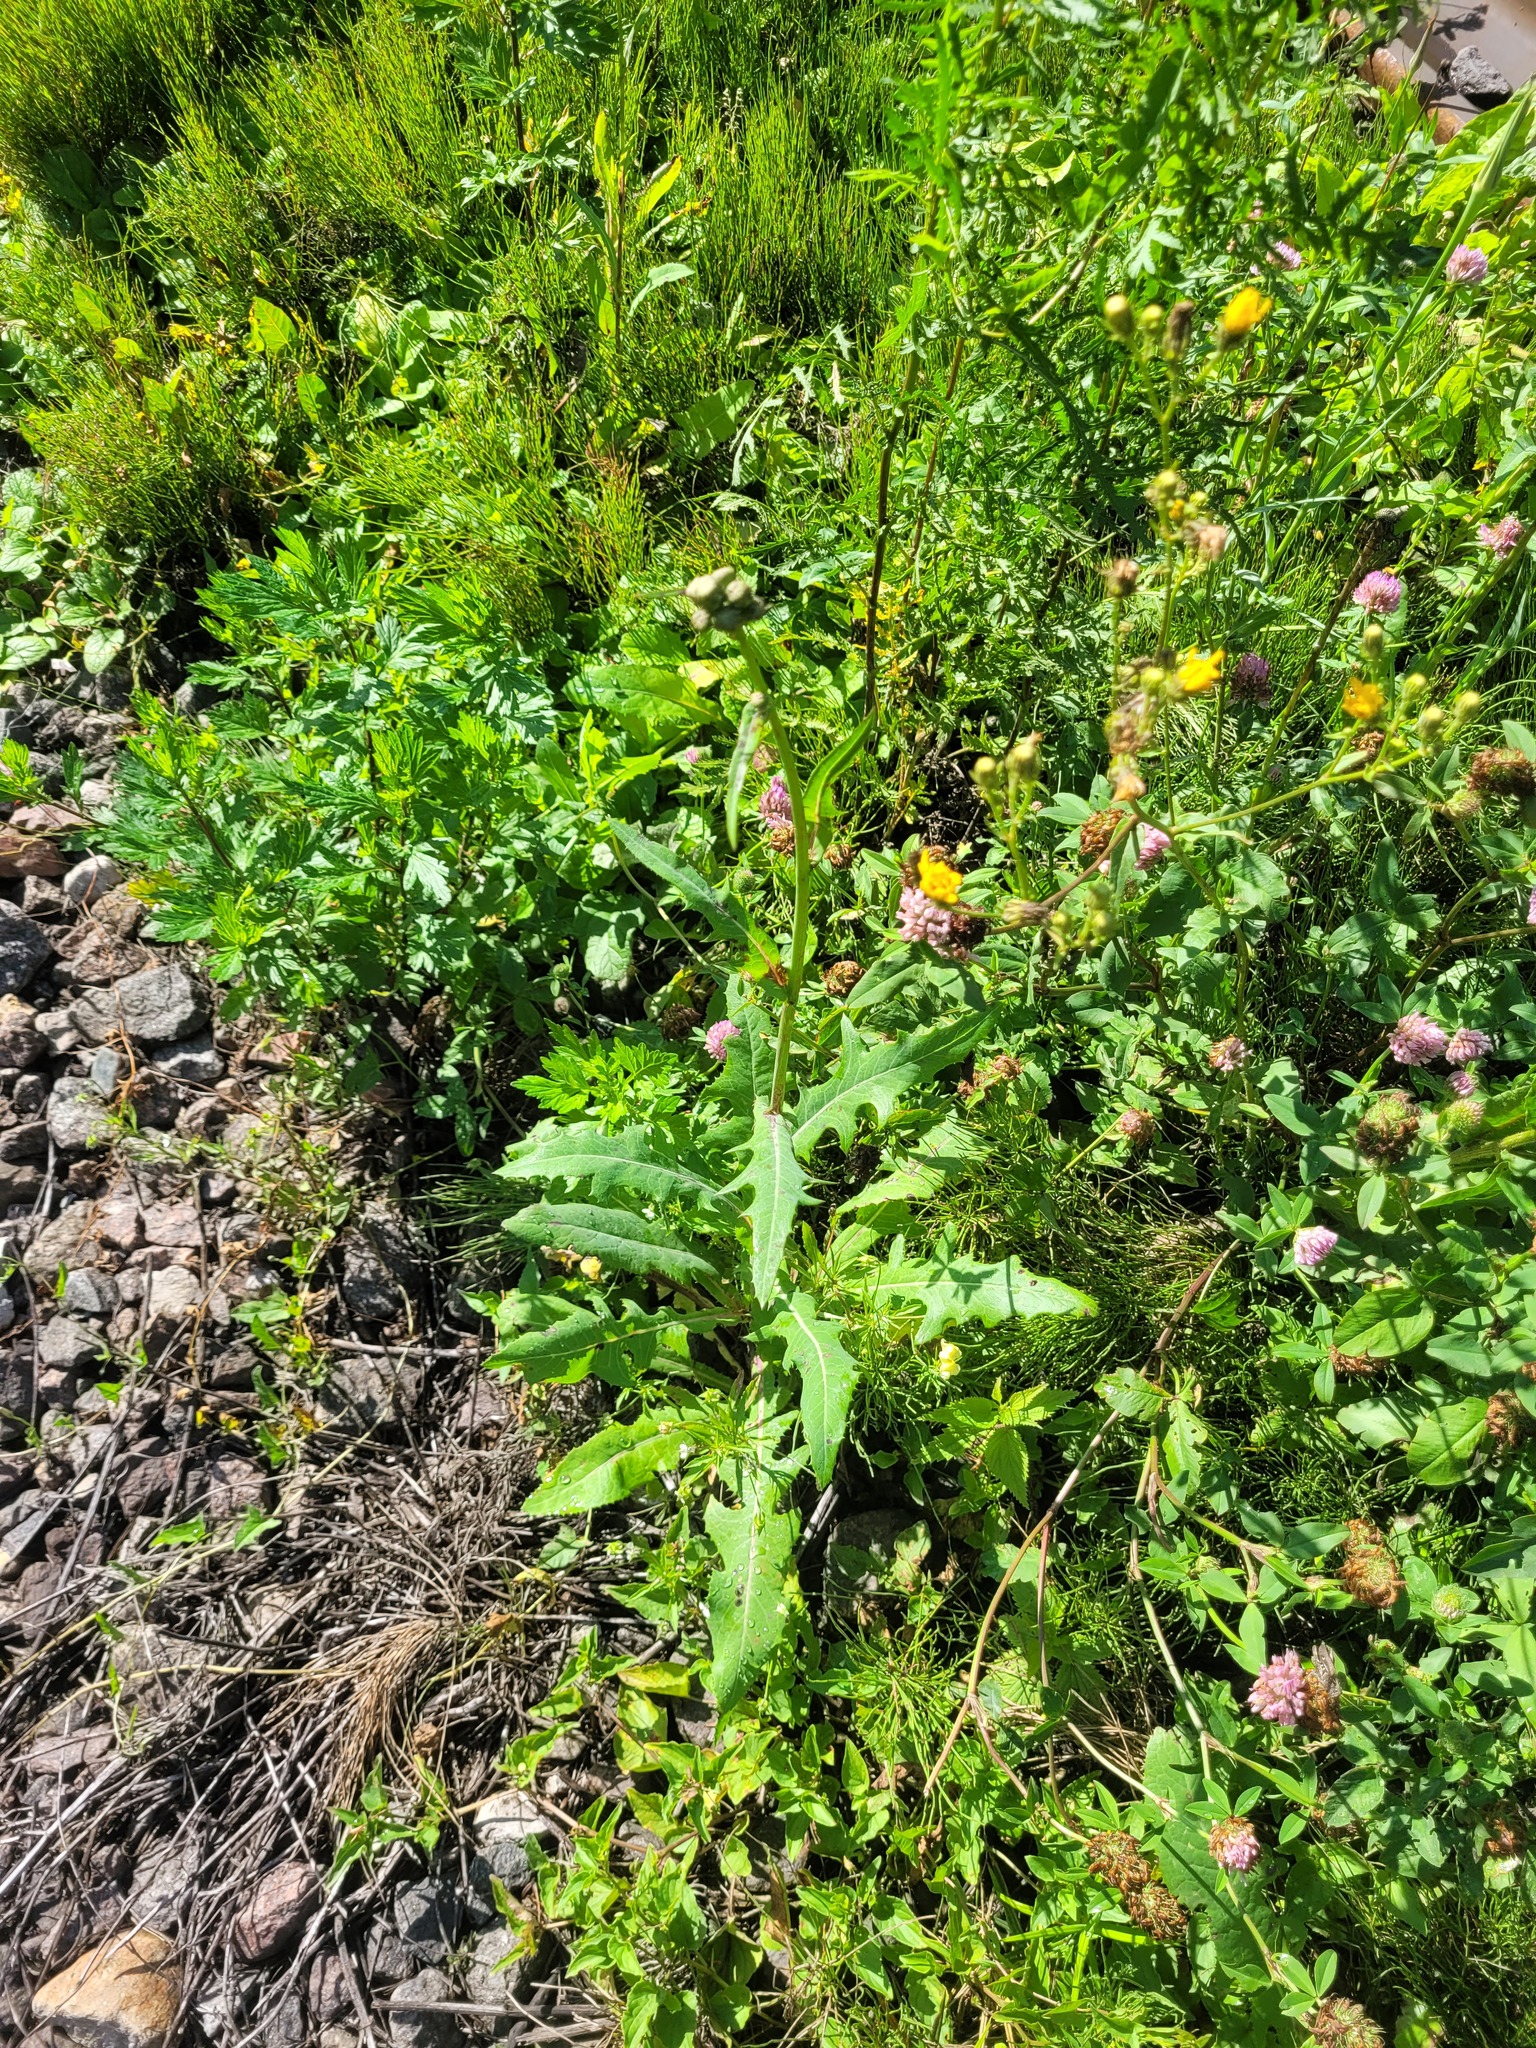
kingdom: Plantae
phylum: Tracheophyta
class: Magnoliopsida
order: Asterales
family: Asteraceae
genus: Sonchus
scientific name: Sonchus arvensis
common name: Perennial sow-thistle
